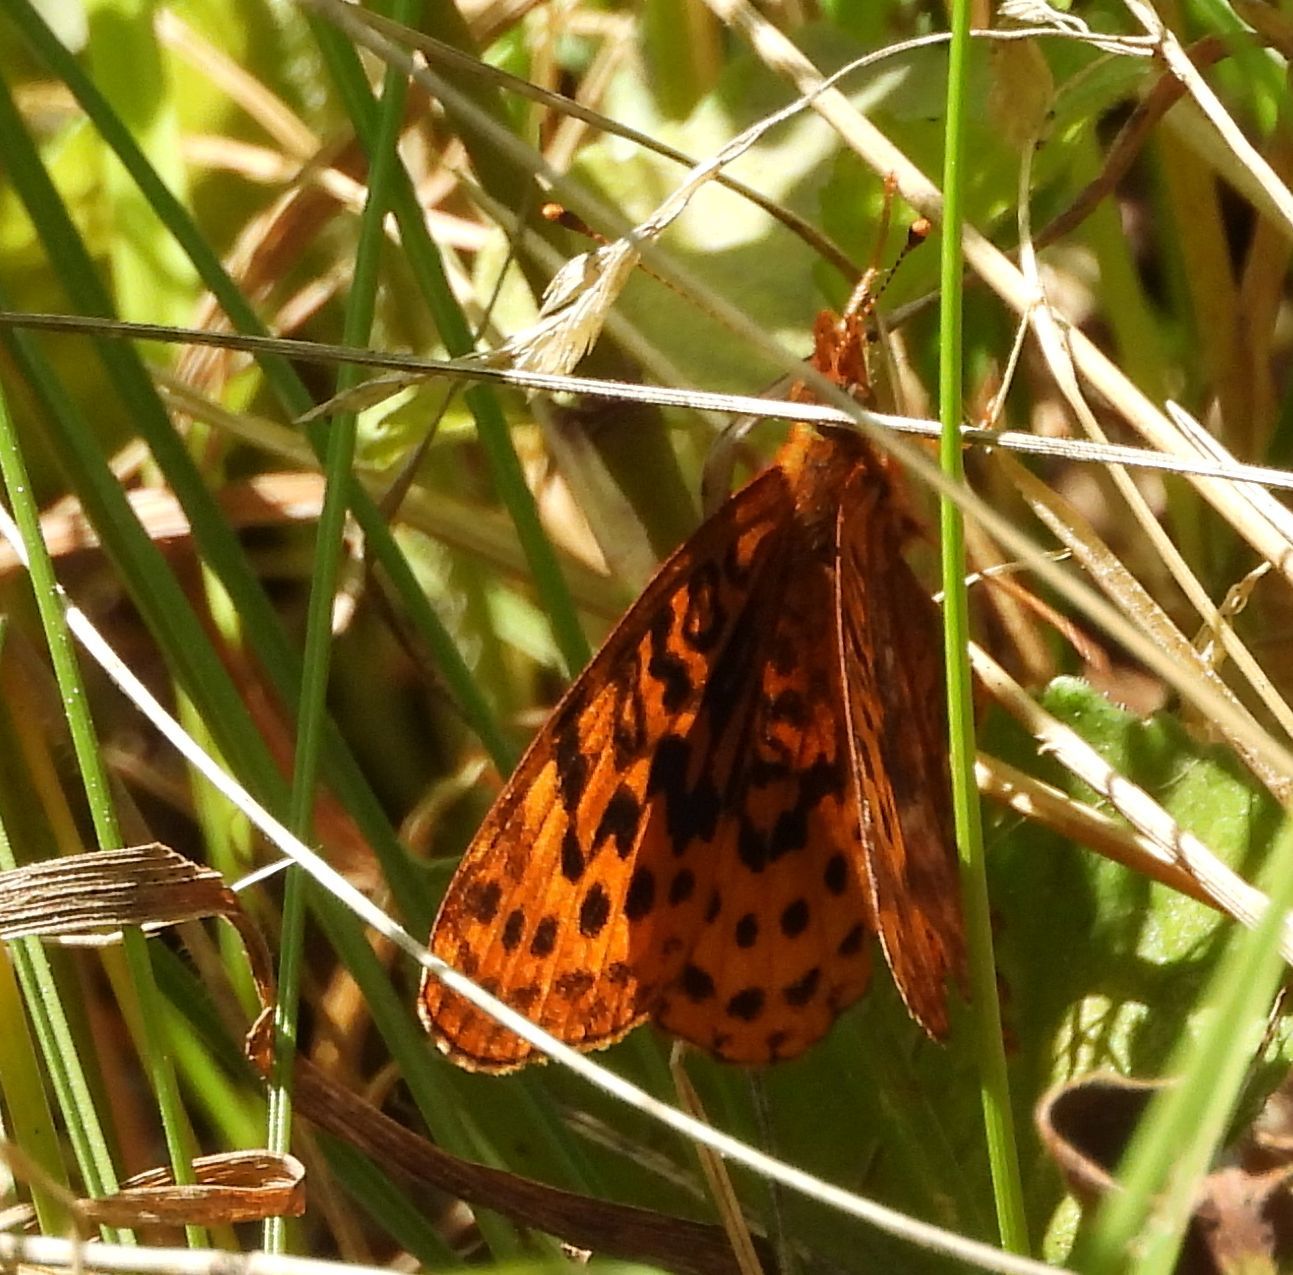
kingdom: Animalia
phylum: Arthropoda
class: Insecta
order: Lepidoptera
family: Nymphalidae
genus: Clossiana
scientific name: Clossiana toddi
